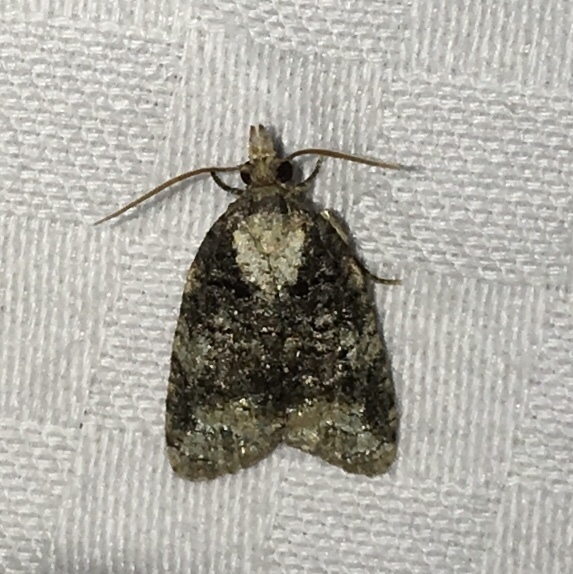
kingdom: Animalia
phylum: Arthropoda
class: Insecta
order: Lepidoptera
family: Tortricidae
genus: Platynota
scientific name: Platynota exasperatana
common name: Exasperating platynota moth
